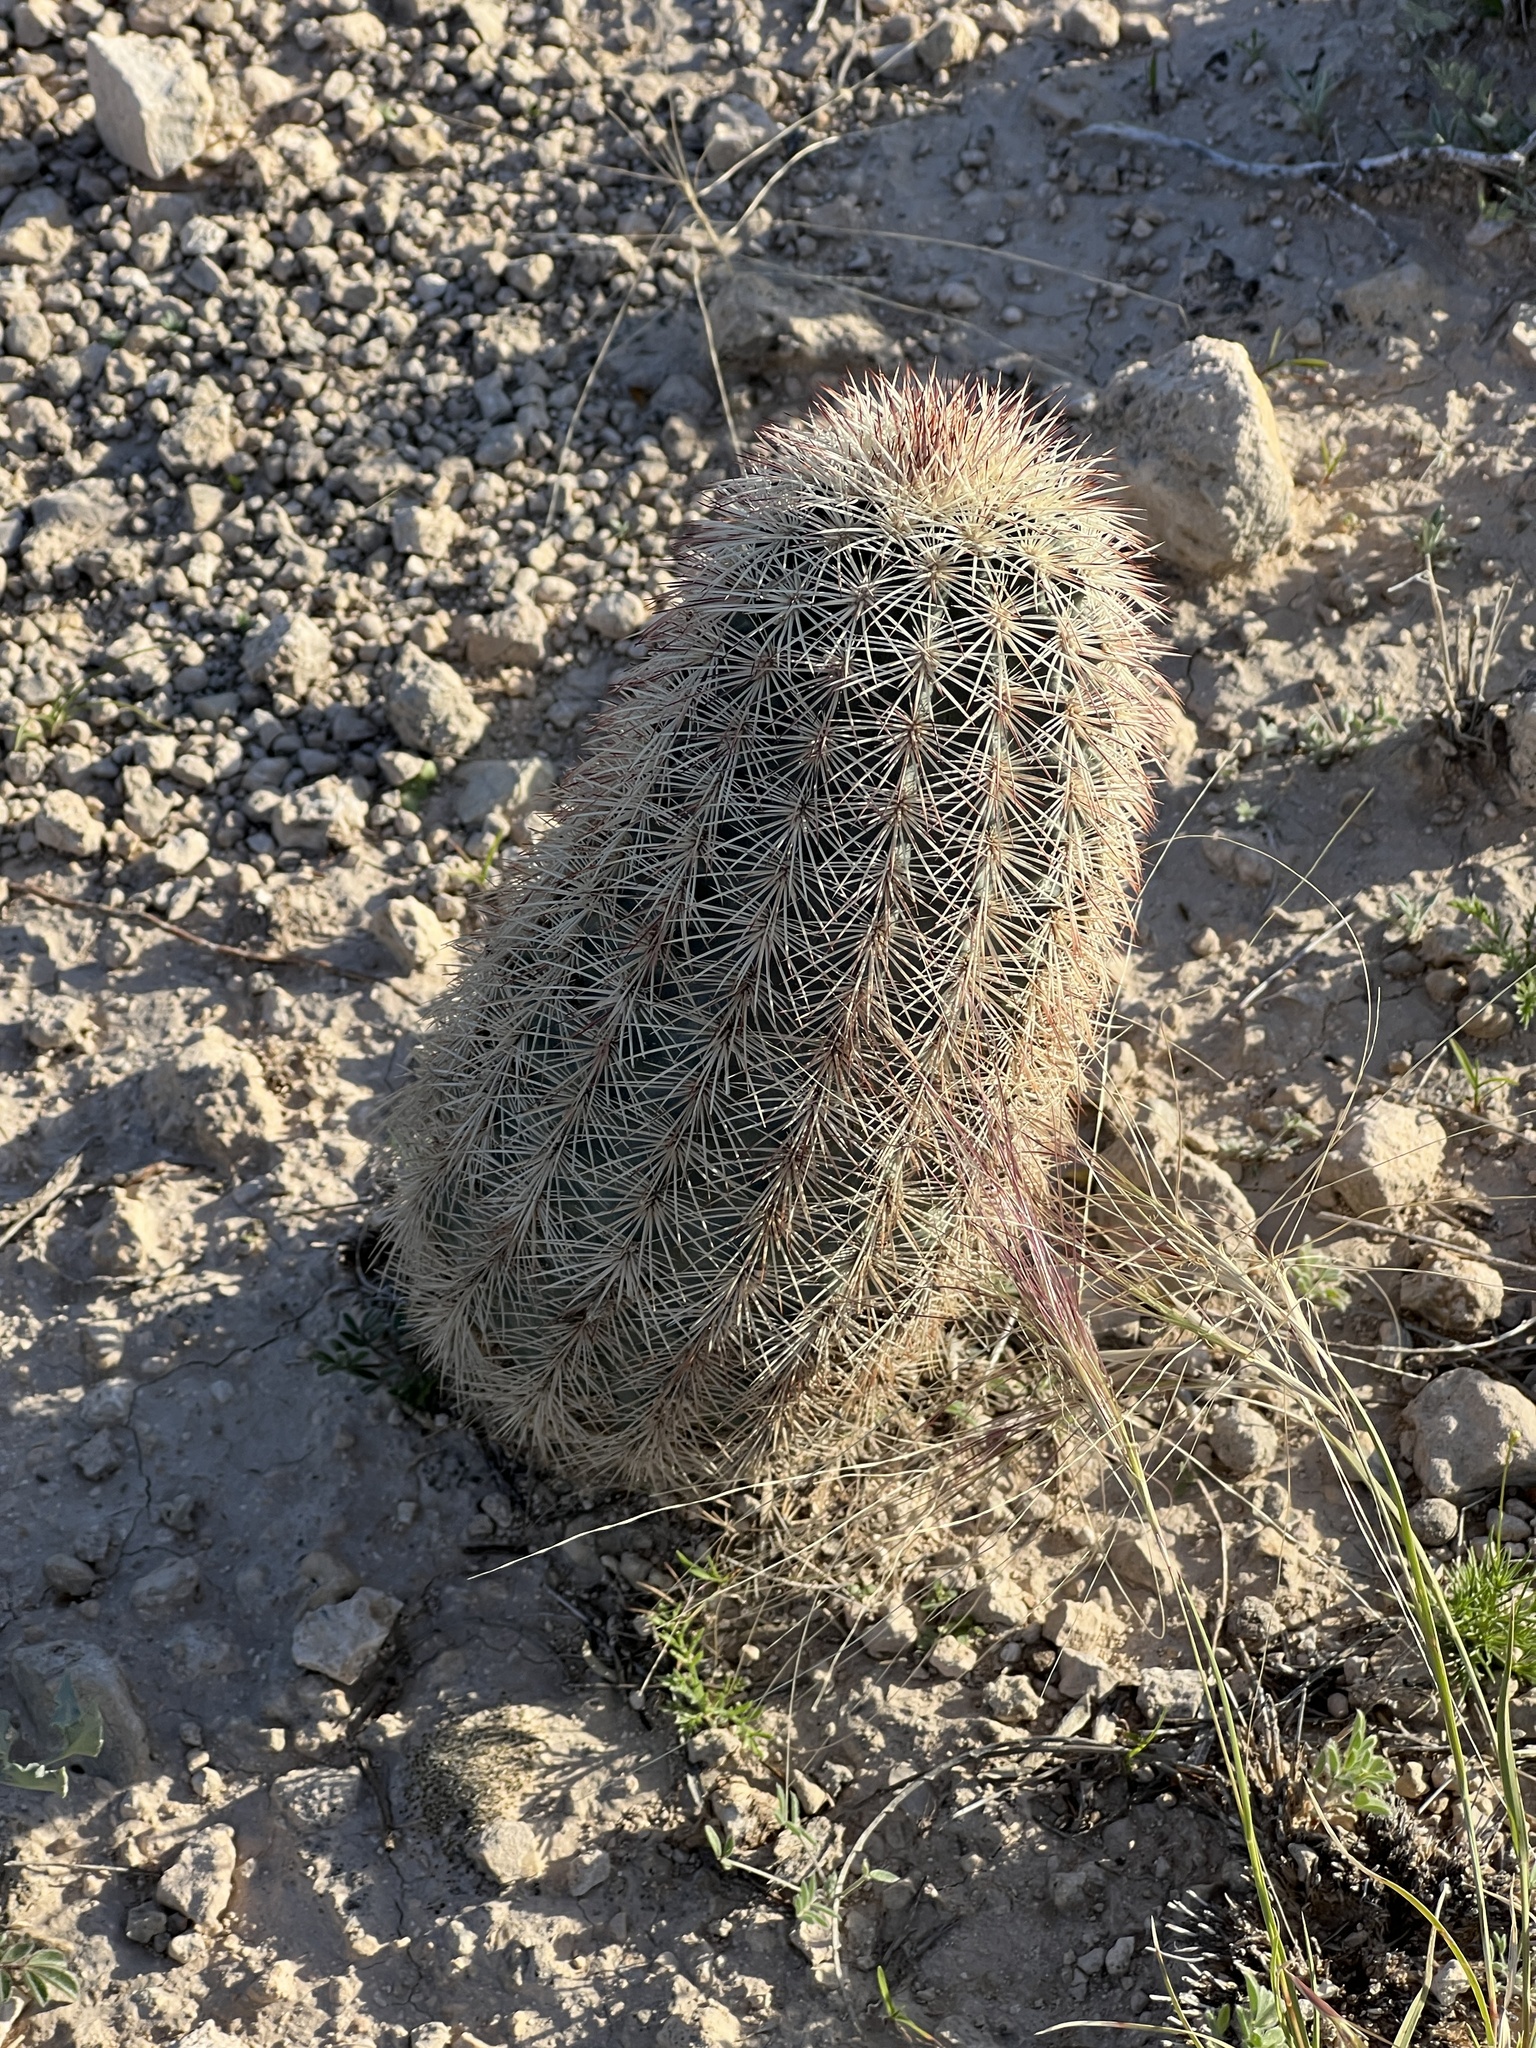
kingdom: Plantae
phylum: Tracheophyta
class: Magnoliopsida
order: Caryophyllales
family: Cactaceae
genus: Echinocereus
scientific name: Echinocereus dasyacanthus
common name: Spiny hedgehog cactus
